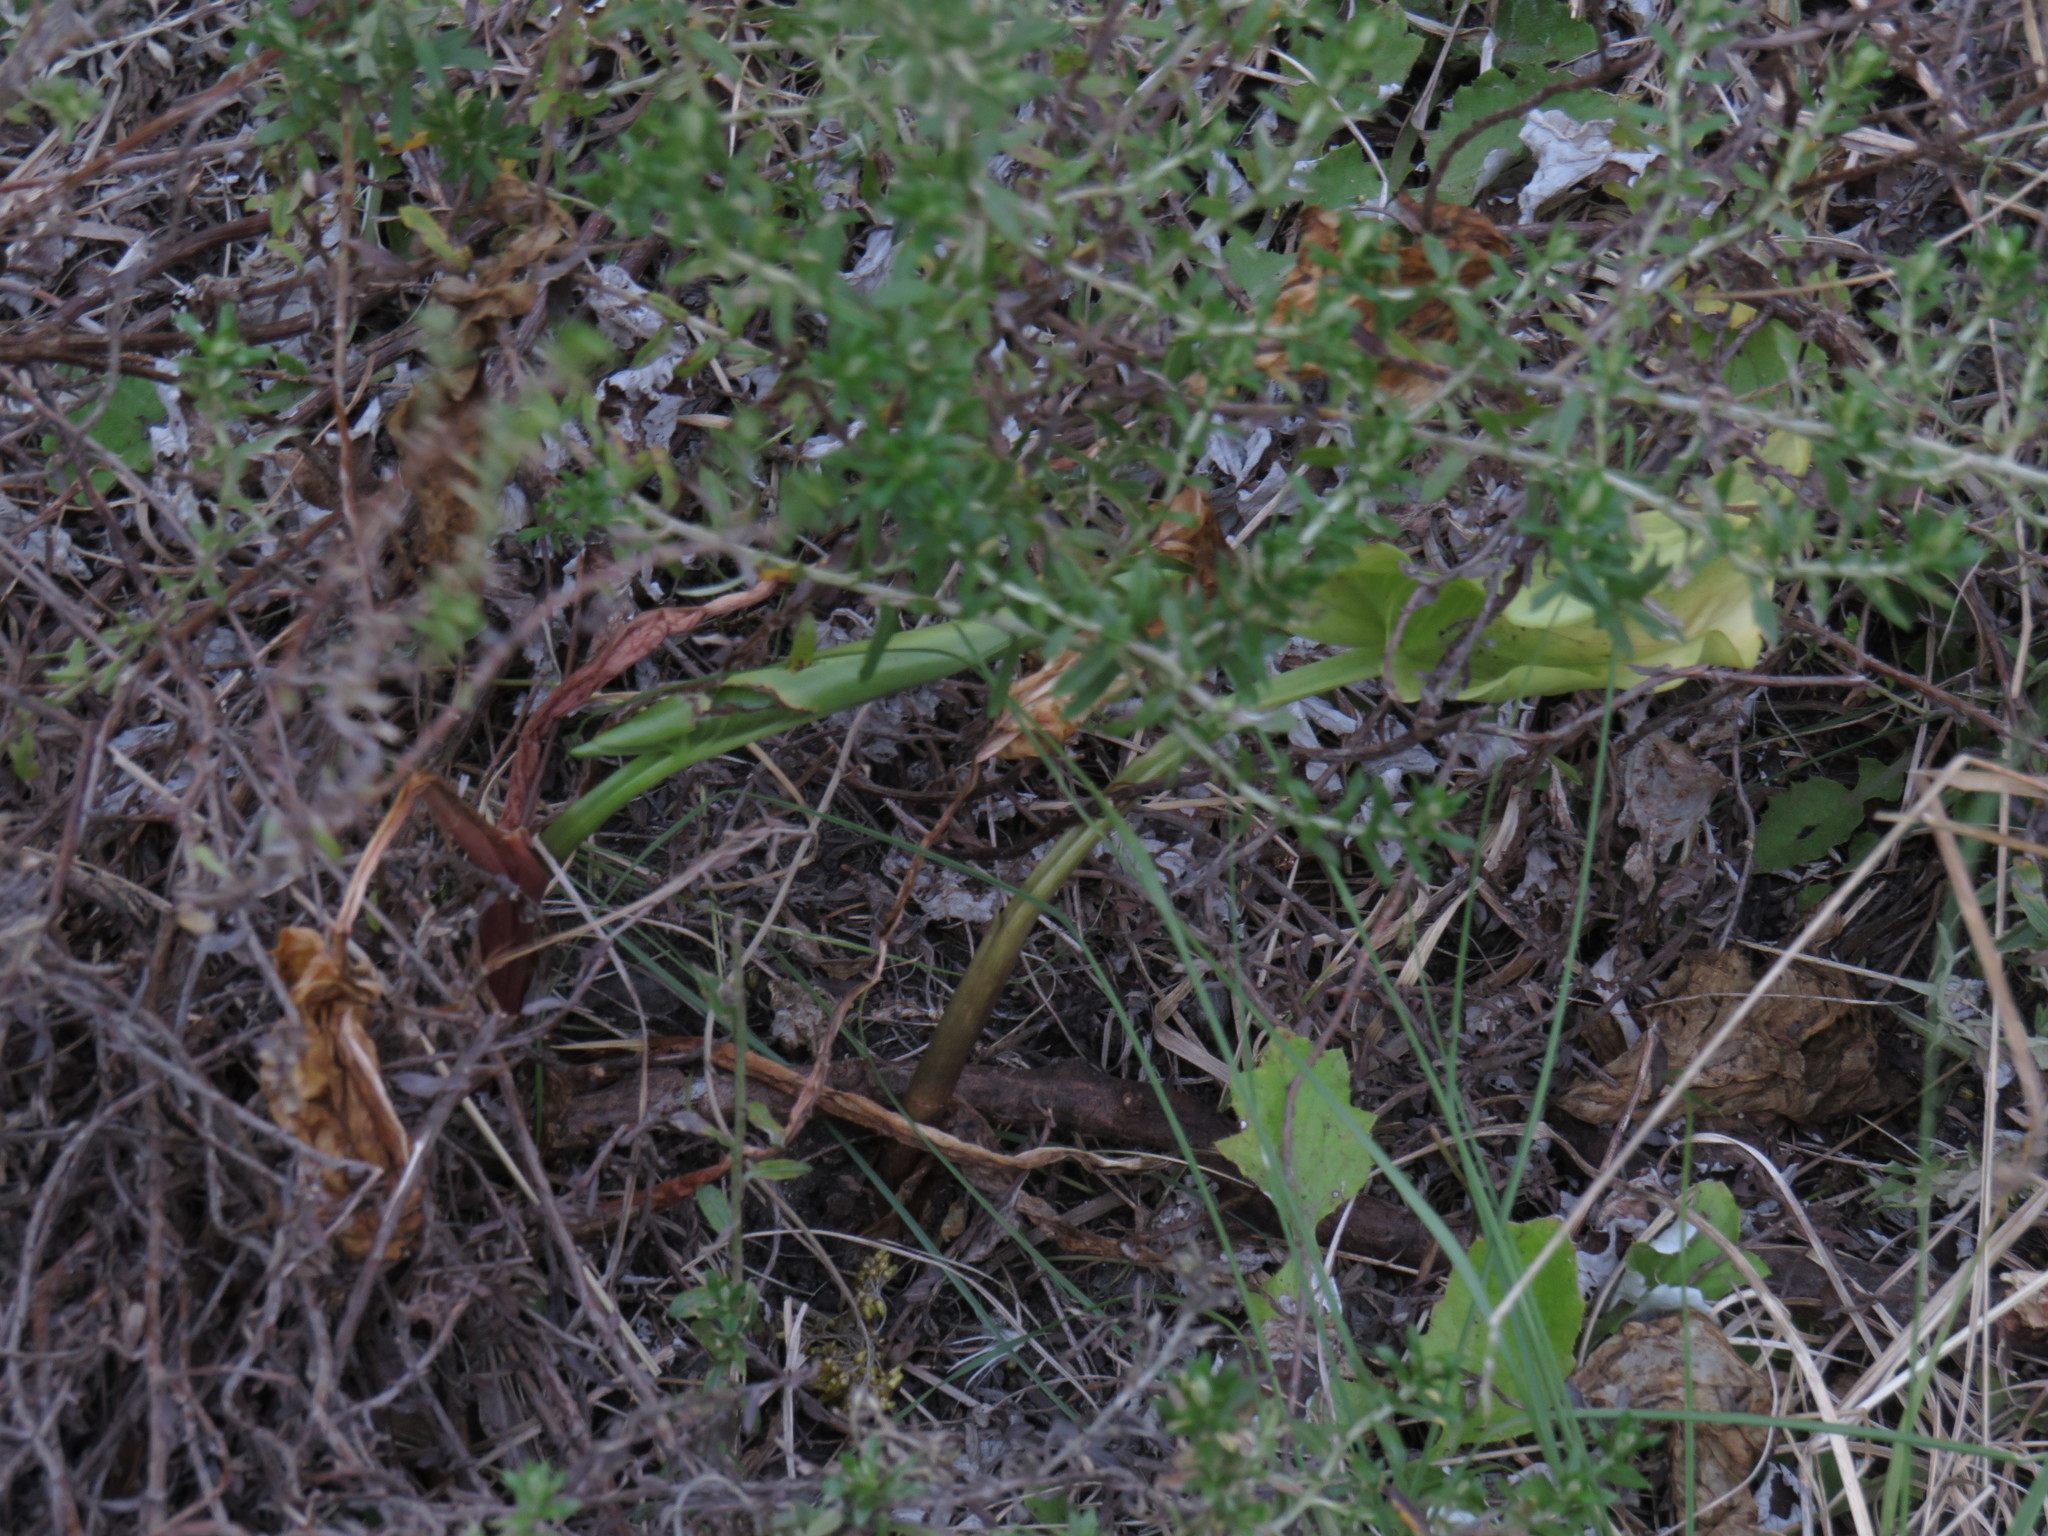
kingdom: Plantae
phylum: Tracheophyta
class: Liliopsida
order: Alismatales
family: Araceae
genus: Zantedeschia
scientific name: Zantedeschia aethiopica
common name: Altar-lily
